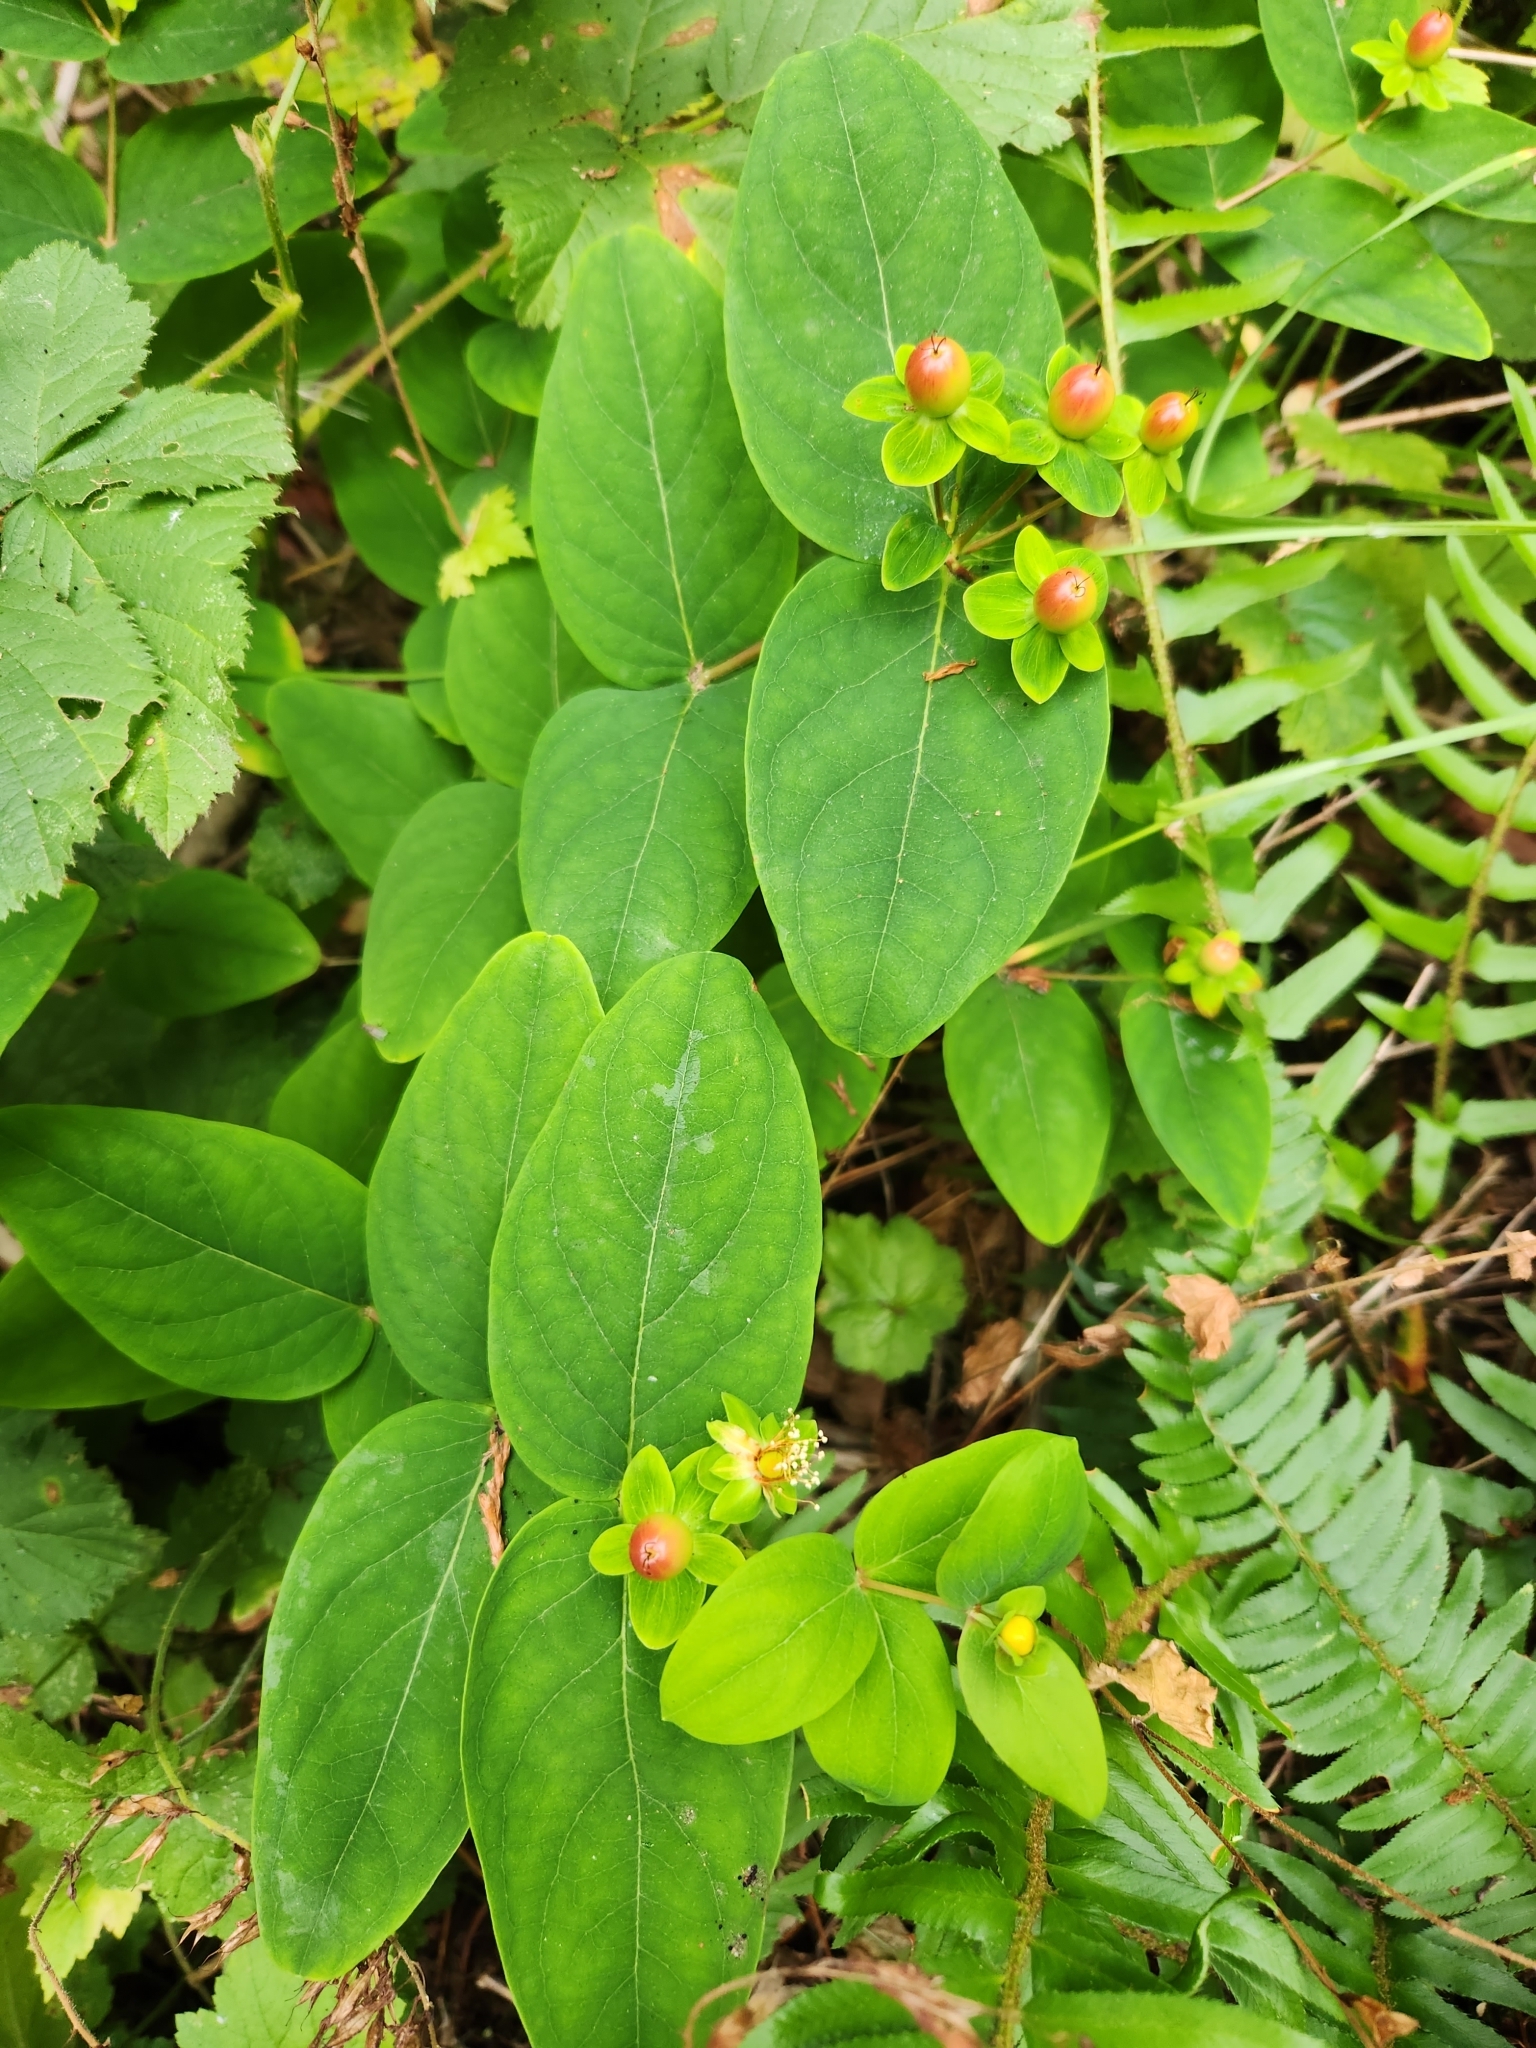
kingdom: Plantae
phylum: Tracheophyta
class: Magnoliopsida
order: Malpighiales
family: Hypericaceae
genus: Hypericum
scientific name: Hypericum androsaemum
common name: Sweet-amber
